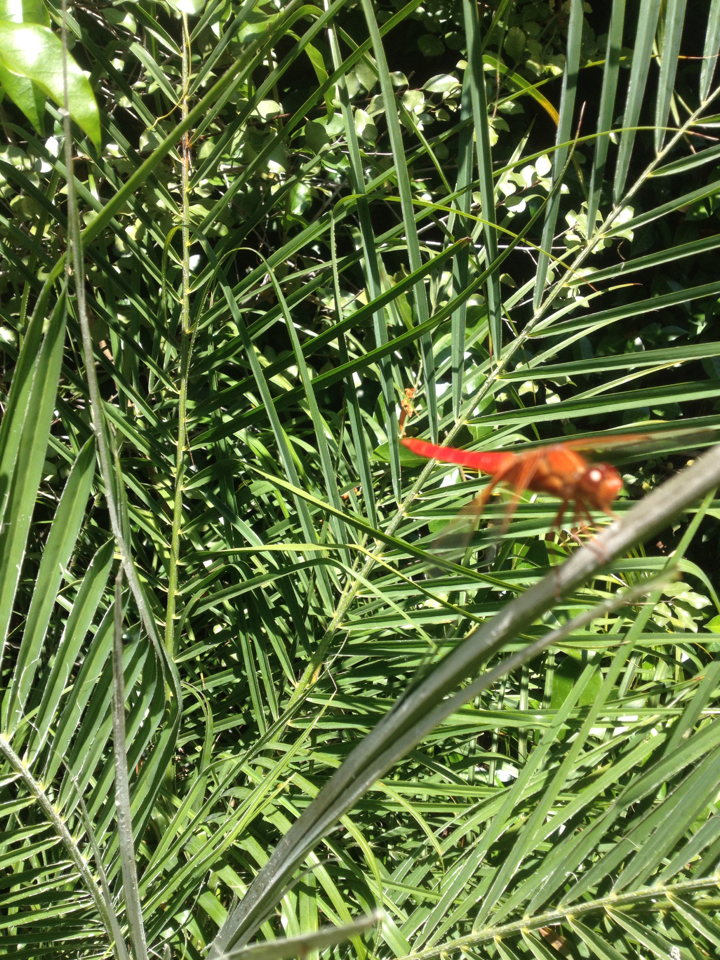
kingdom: Animalia
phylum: Arthropoda
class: Insecta
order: Odonata
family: Libellulidae
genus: Libellula
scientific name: Libellula croceipennis
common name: Neon skimmer
